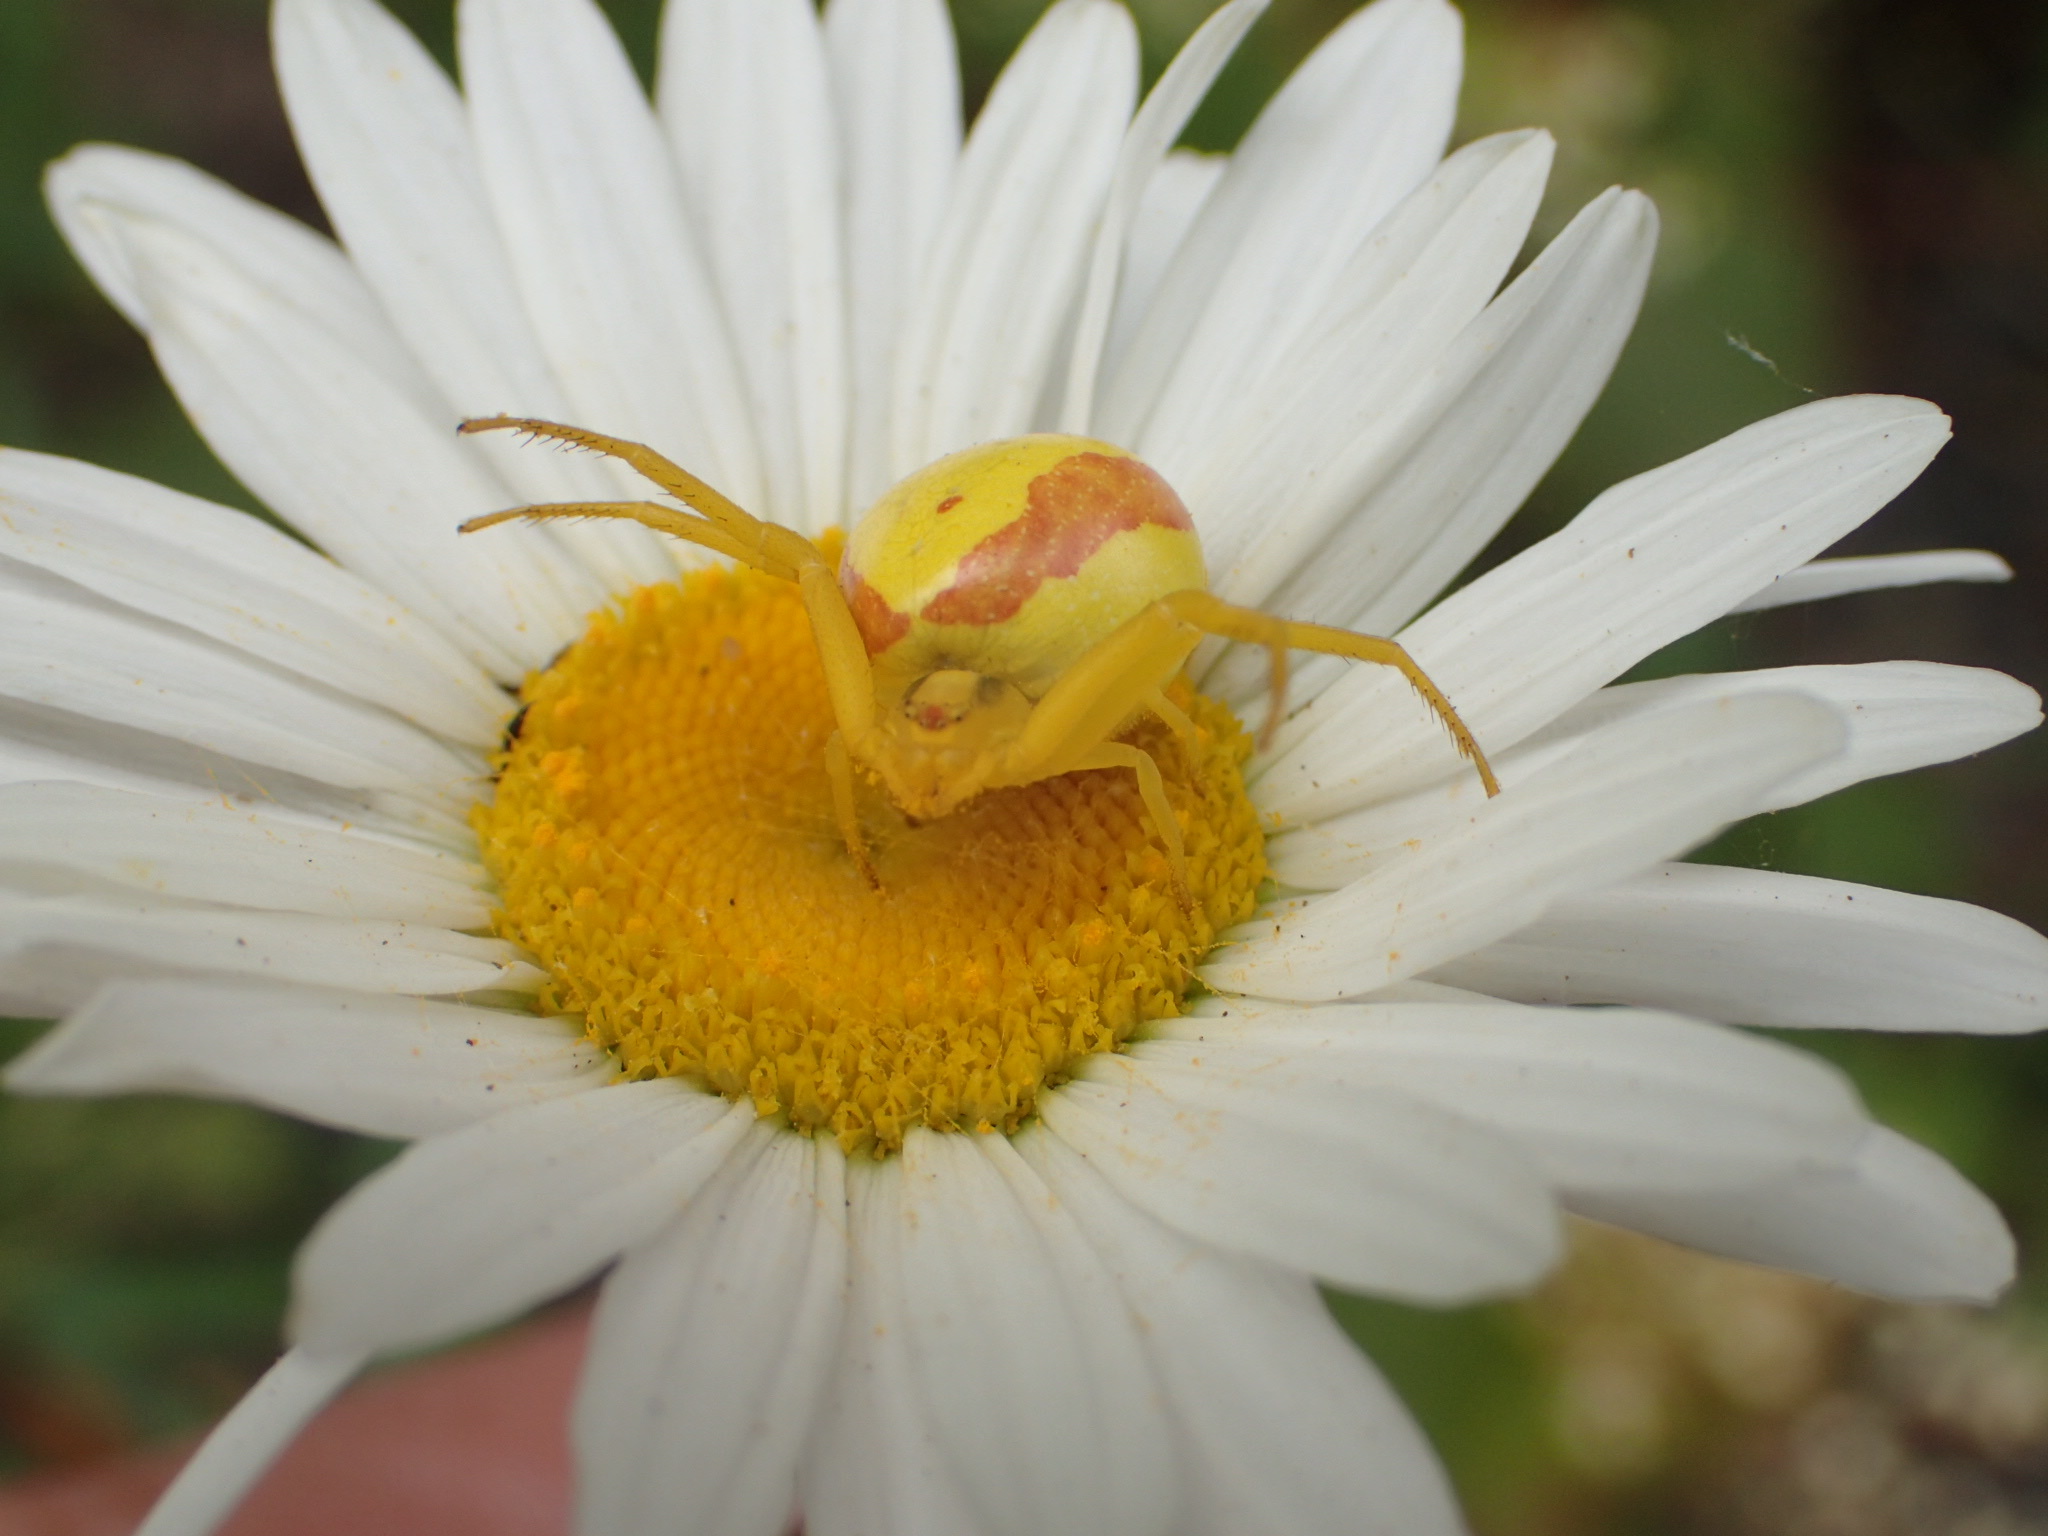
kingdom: Animalia
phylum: Arthropoda
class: Arachnida
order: Araneae
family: Thomisidae
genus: Misumena
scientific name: Misumena vatia
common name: Goldenrod crab spider
